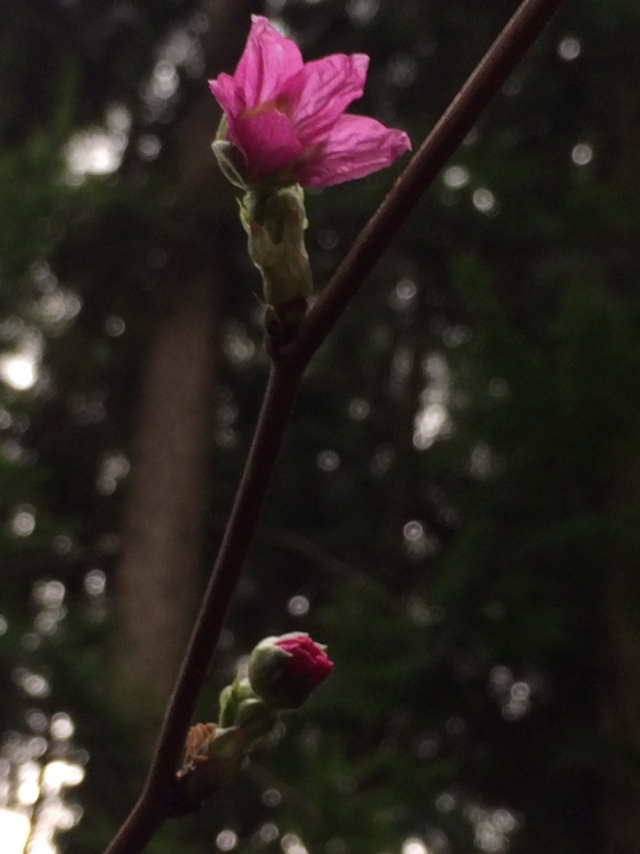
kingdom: Plantae
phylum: Tracheophyta
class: Magnoliopsida
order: Rosales
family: Rosaceae
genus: Rubus
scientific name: Rubus spectabilis
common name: Salmonberry
